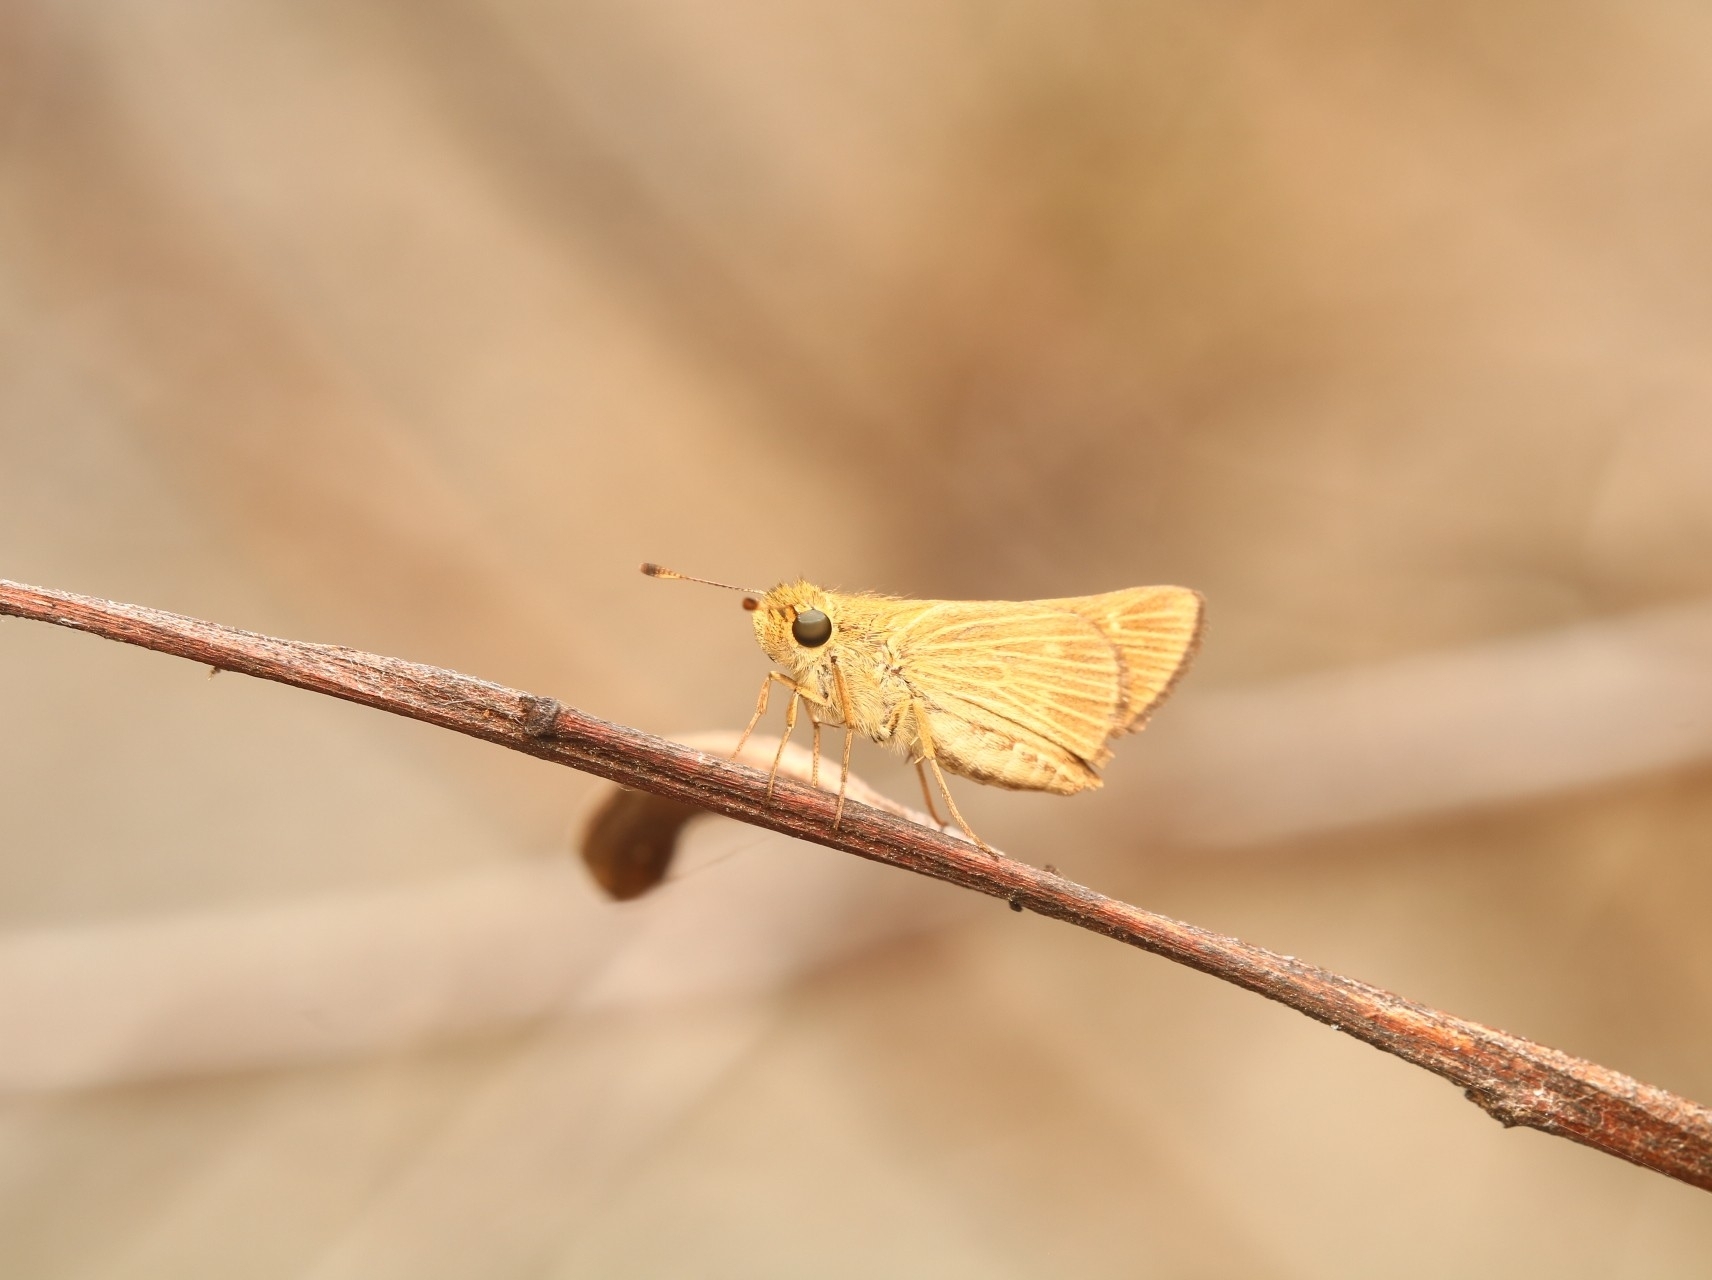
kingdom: Animalia
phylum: Arthropoda
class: Insecta
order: Lepidoptera
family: Hesperiidae
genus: Panoquina
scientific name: Panoquina panoquinoides
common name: Beach skipper
